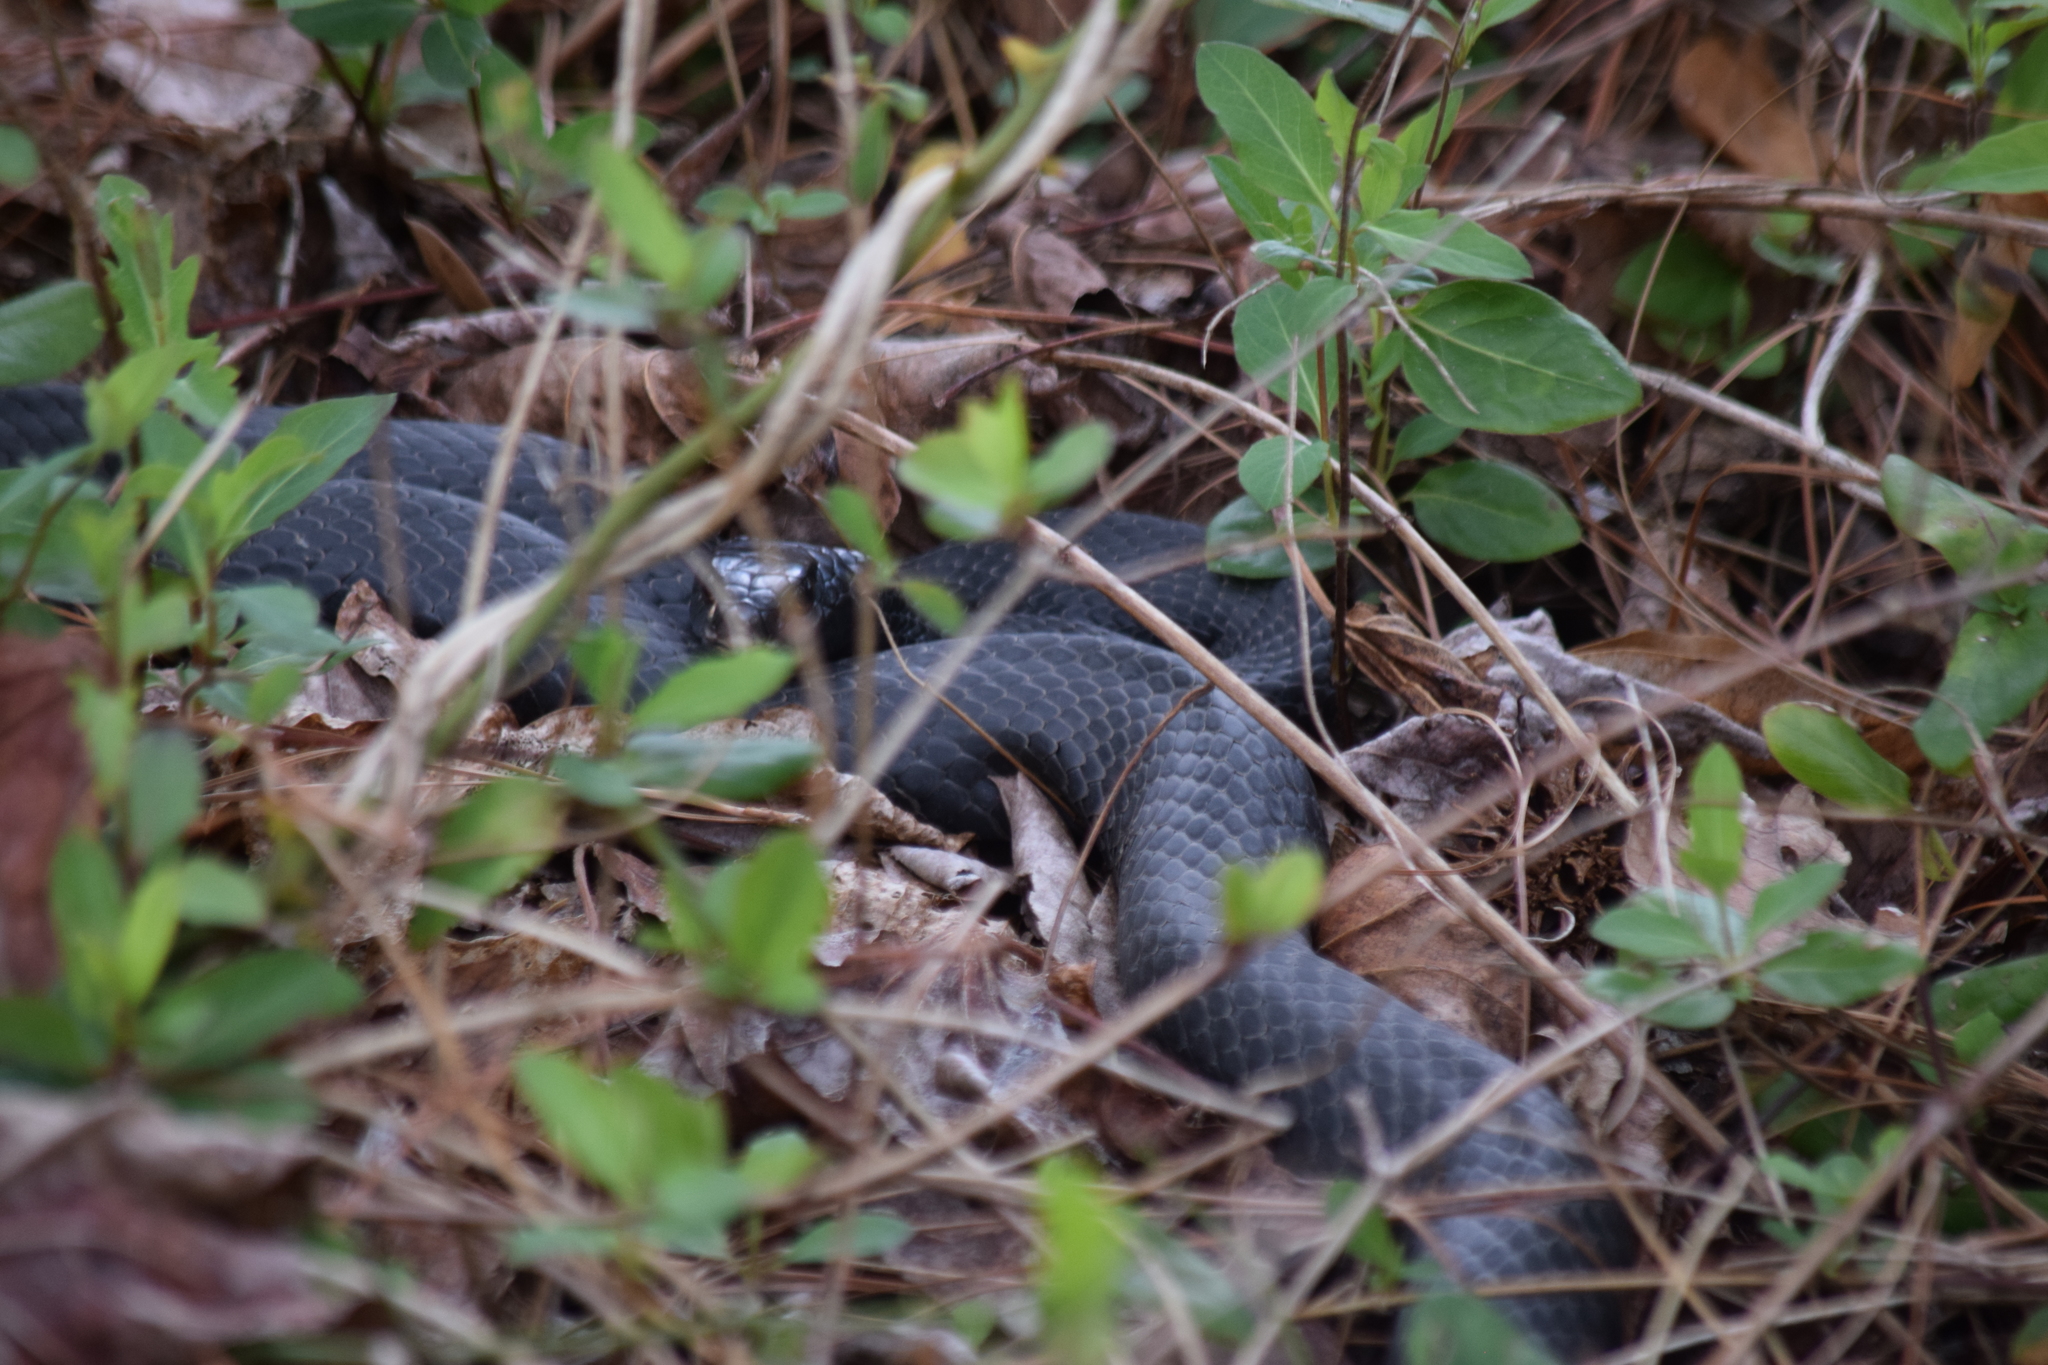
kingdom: Animalia
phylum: Chordata
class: Squamata
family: Colubridae
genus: Coluber
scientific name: Coluber constrictor
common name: Eastern racer
